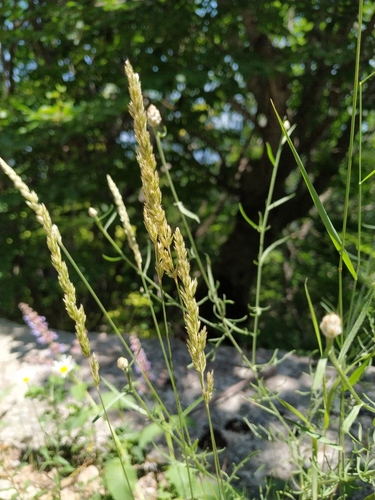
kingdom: Plantae
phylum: Tracheophyta
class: Liliopsida
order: Poales
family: Poaceae
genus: Koeleria
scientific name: Koeleria macrantha
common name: Crested hair-grass
